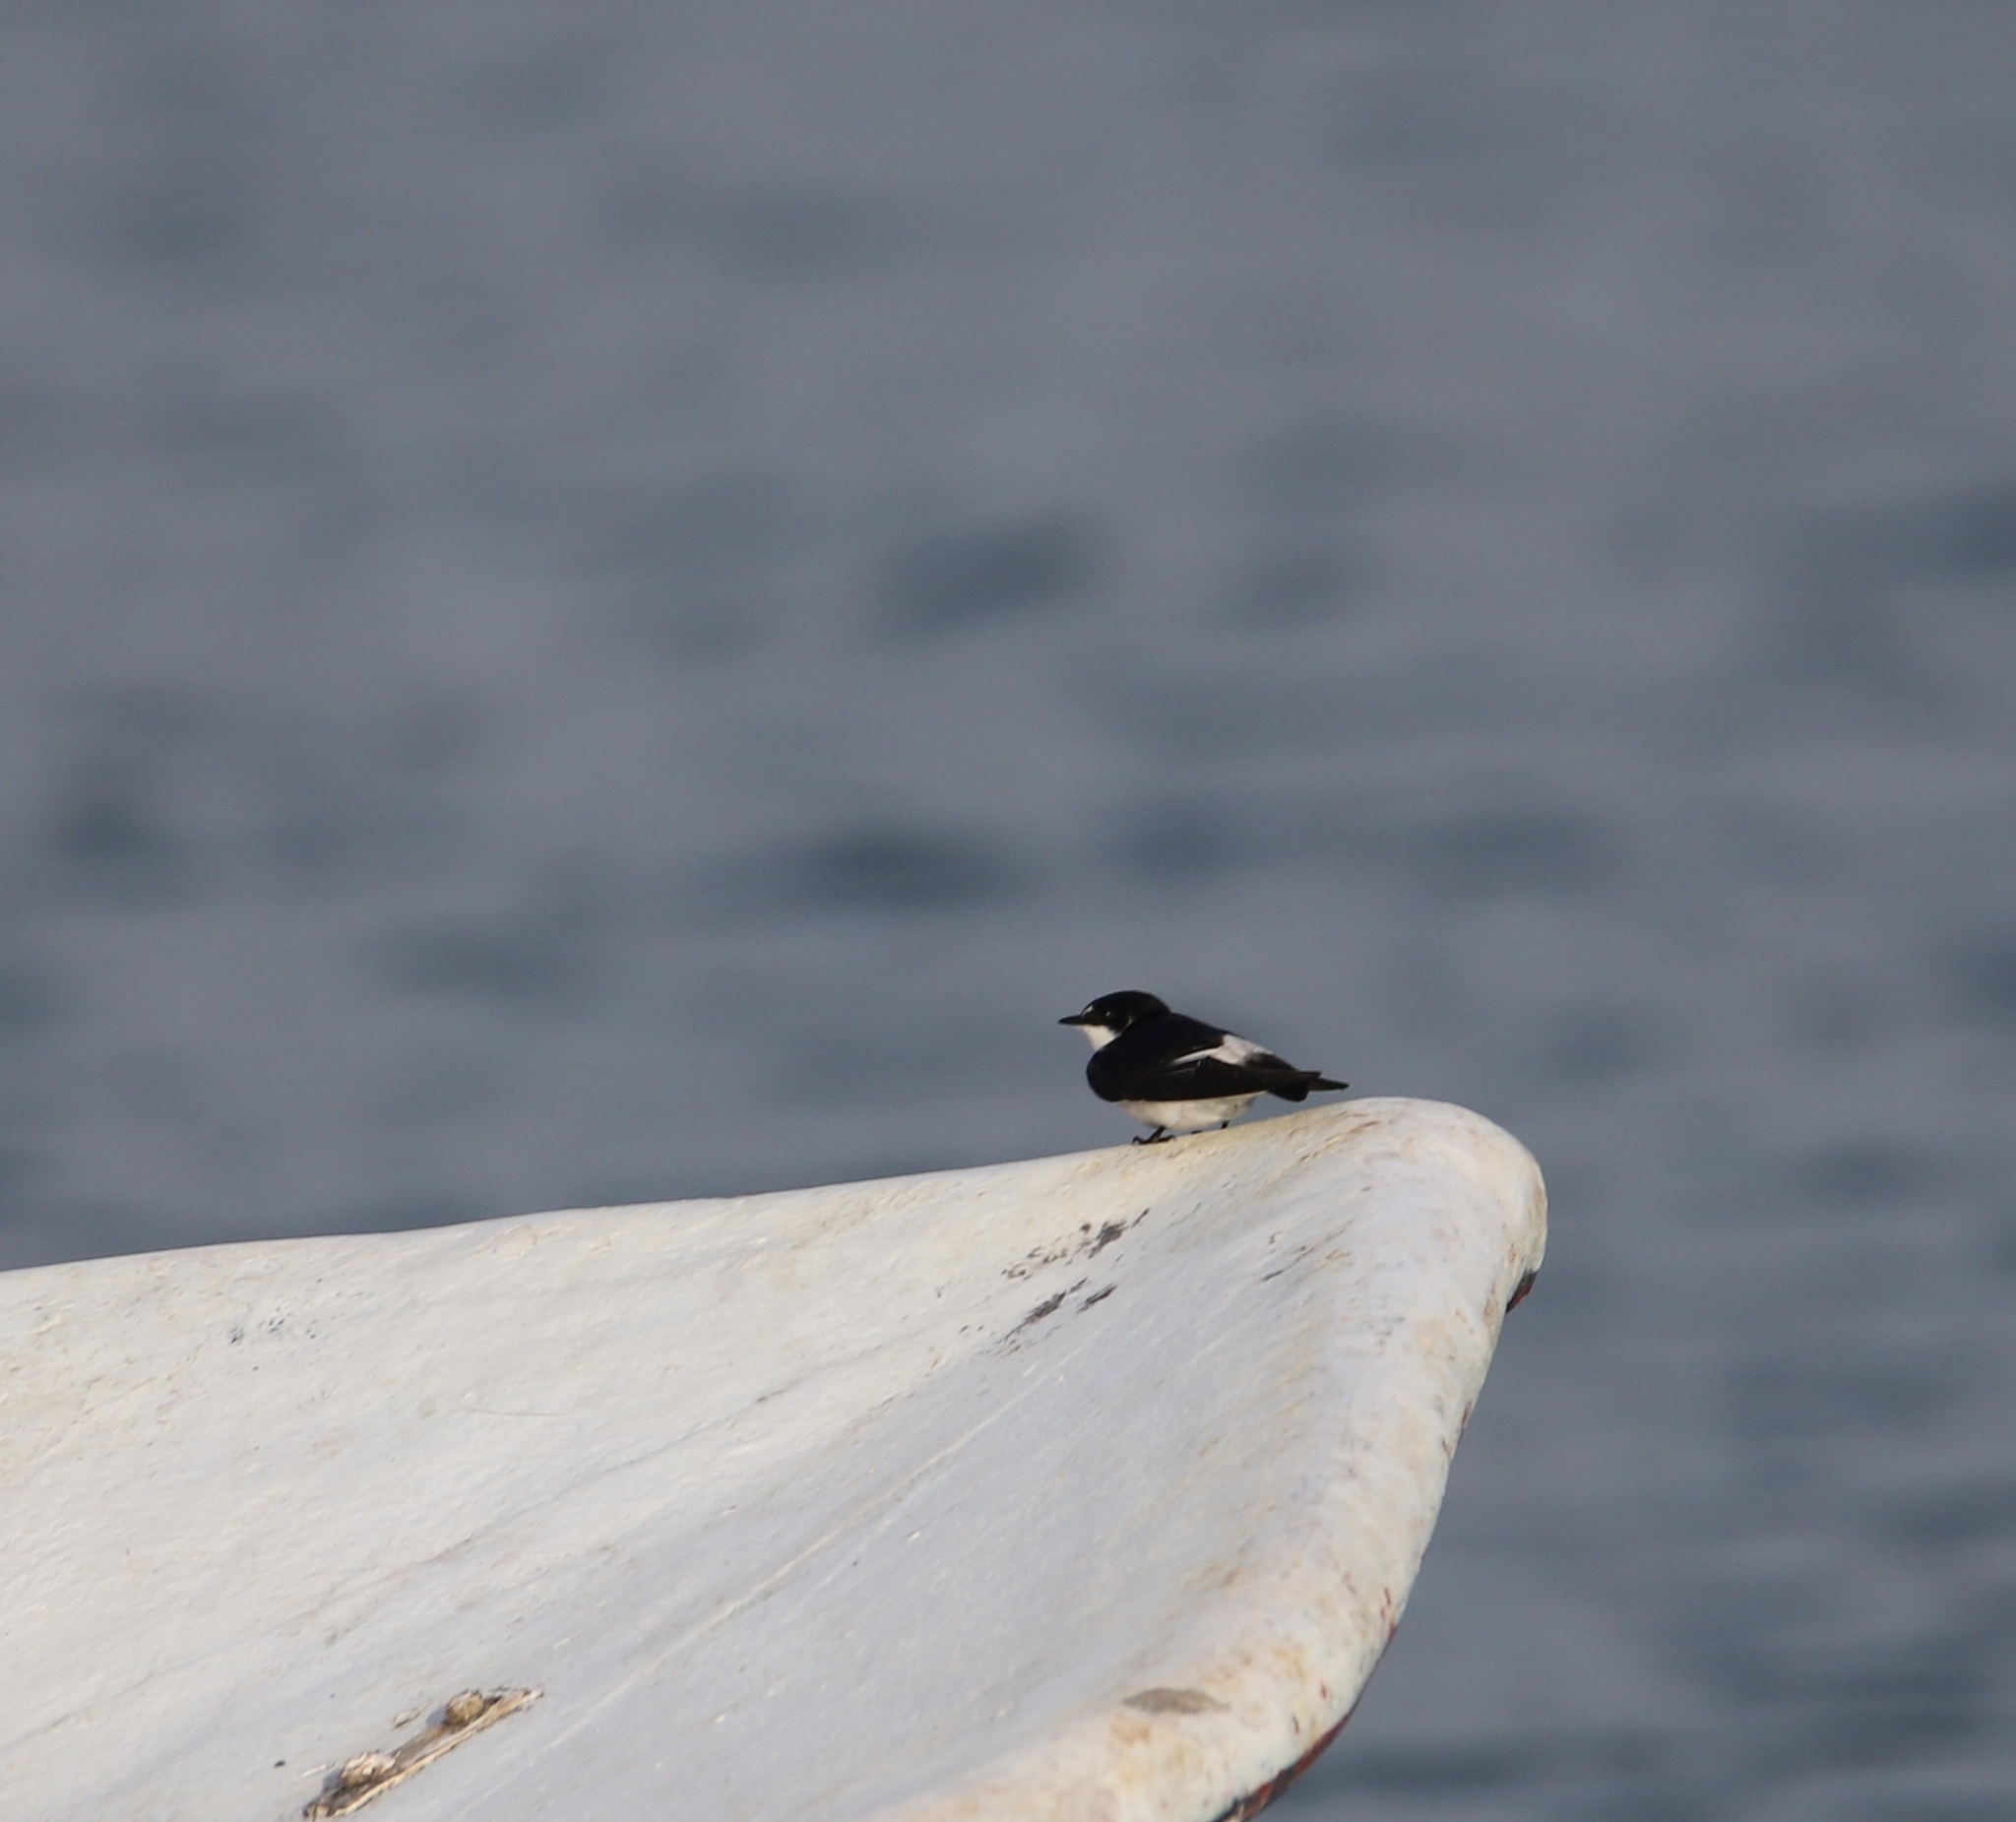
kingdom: Animalia
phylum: Chordata
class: Aves
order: Passeriformes
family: Hirundinidae
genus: Tachycineta
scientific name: Tachycineta albilinea
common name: Mangrove swallow
